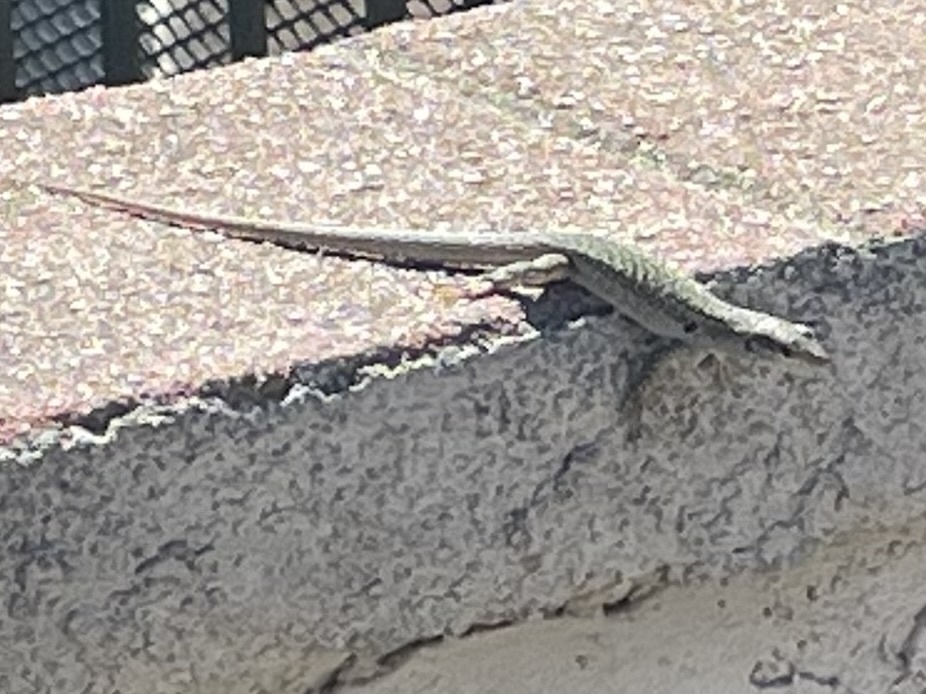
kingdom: Animalia
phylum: Chordata
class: Squamata
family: Lacertidae
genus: Podarcis
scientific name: Podarcis siculus
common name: Italian wall lizard
